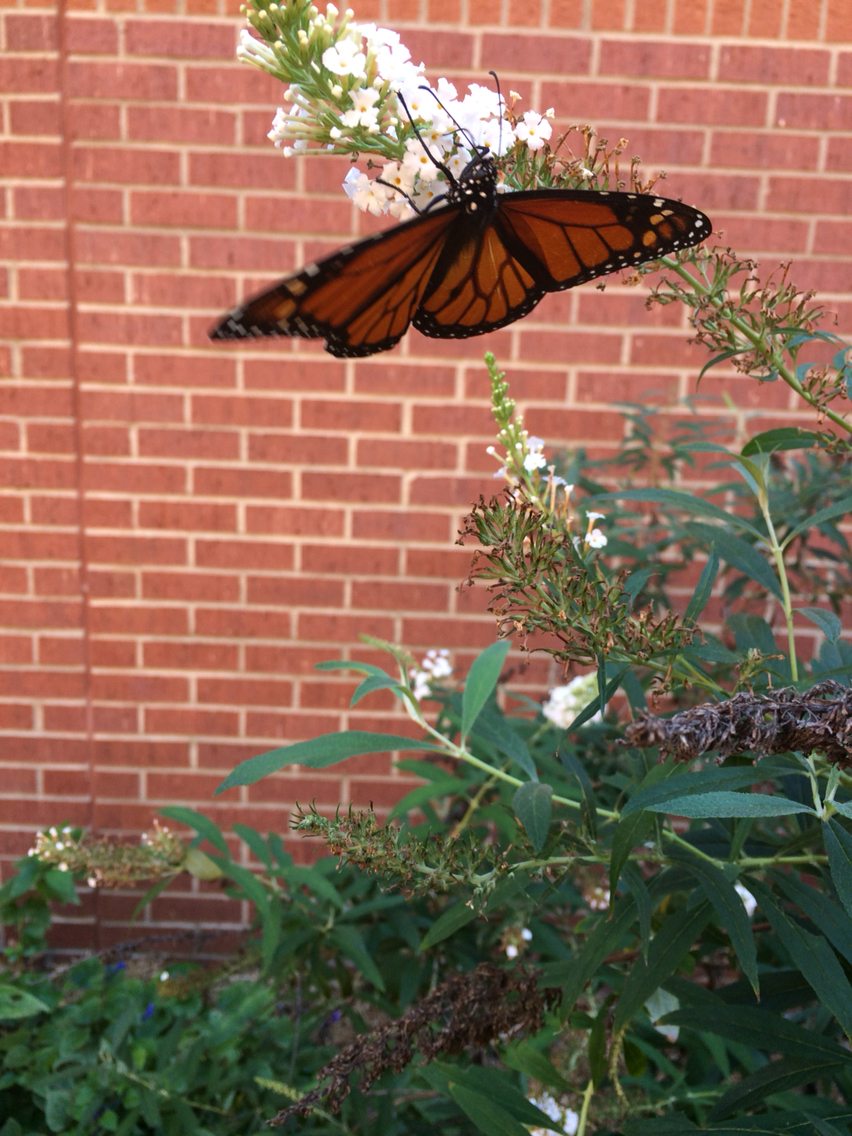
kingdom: Animalia
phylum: Arthropoda
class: Insecta
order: Lepidoptera
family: Nymphalidae
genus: Danaus
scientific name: Danaus plexippus
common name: Monarch
